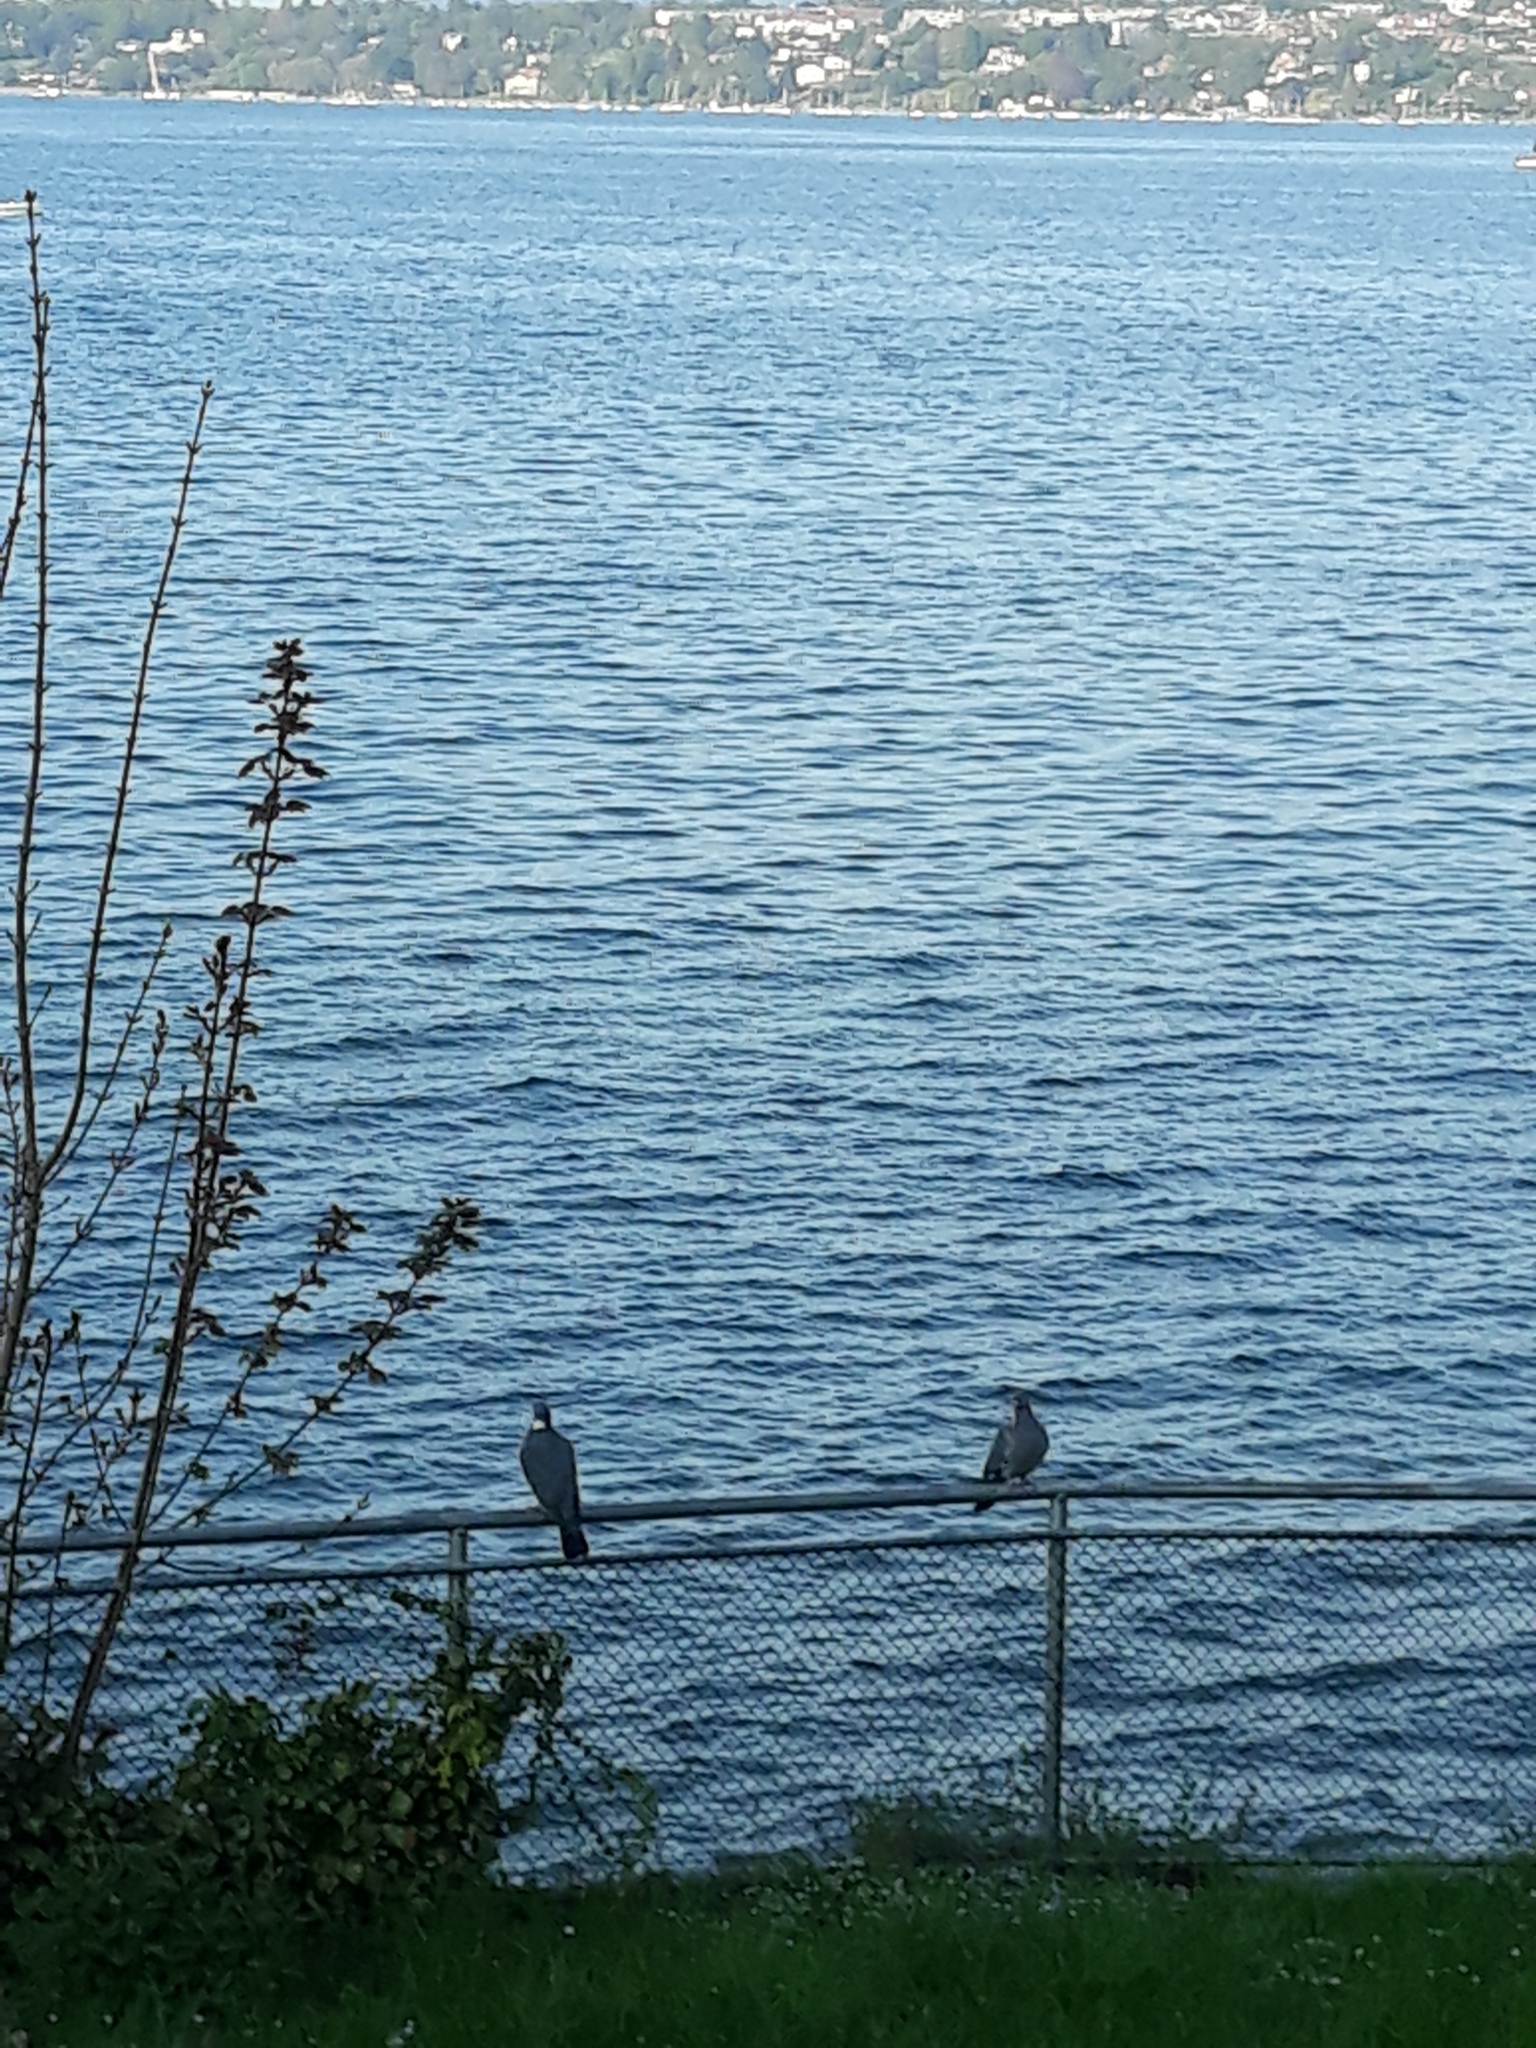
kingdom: Animalia
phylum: Chordata
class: Aves
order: Columbiformes
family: Columbidae
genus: Columba
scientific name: Columba palumbus
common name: Common wood pigeon
